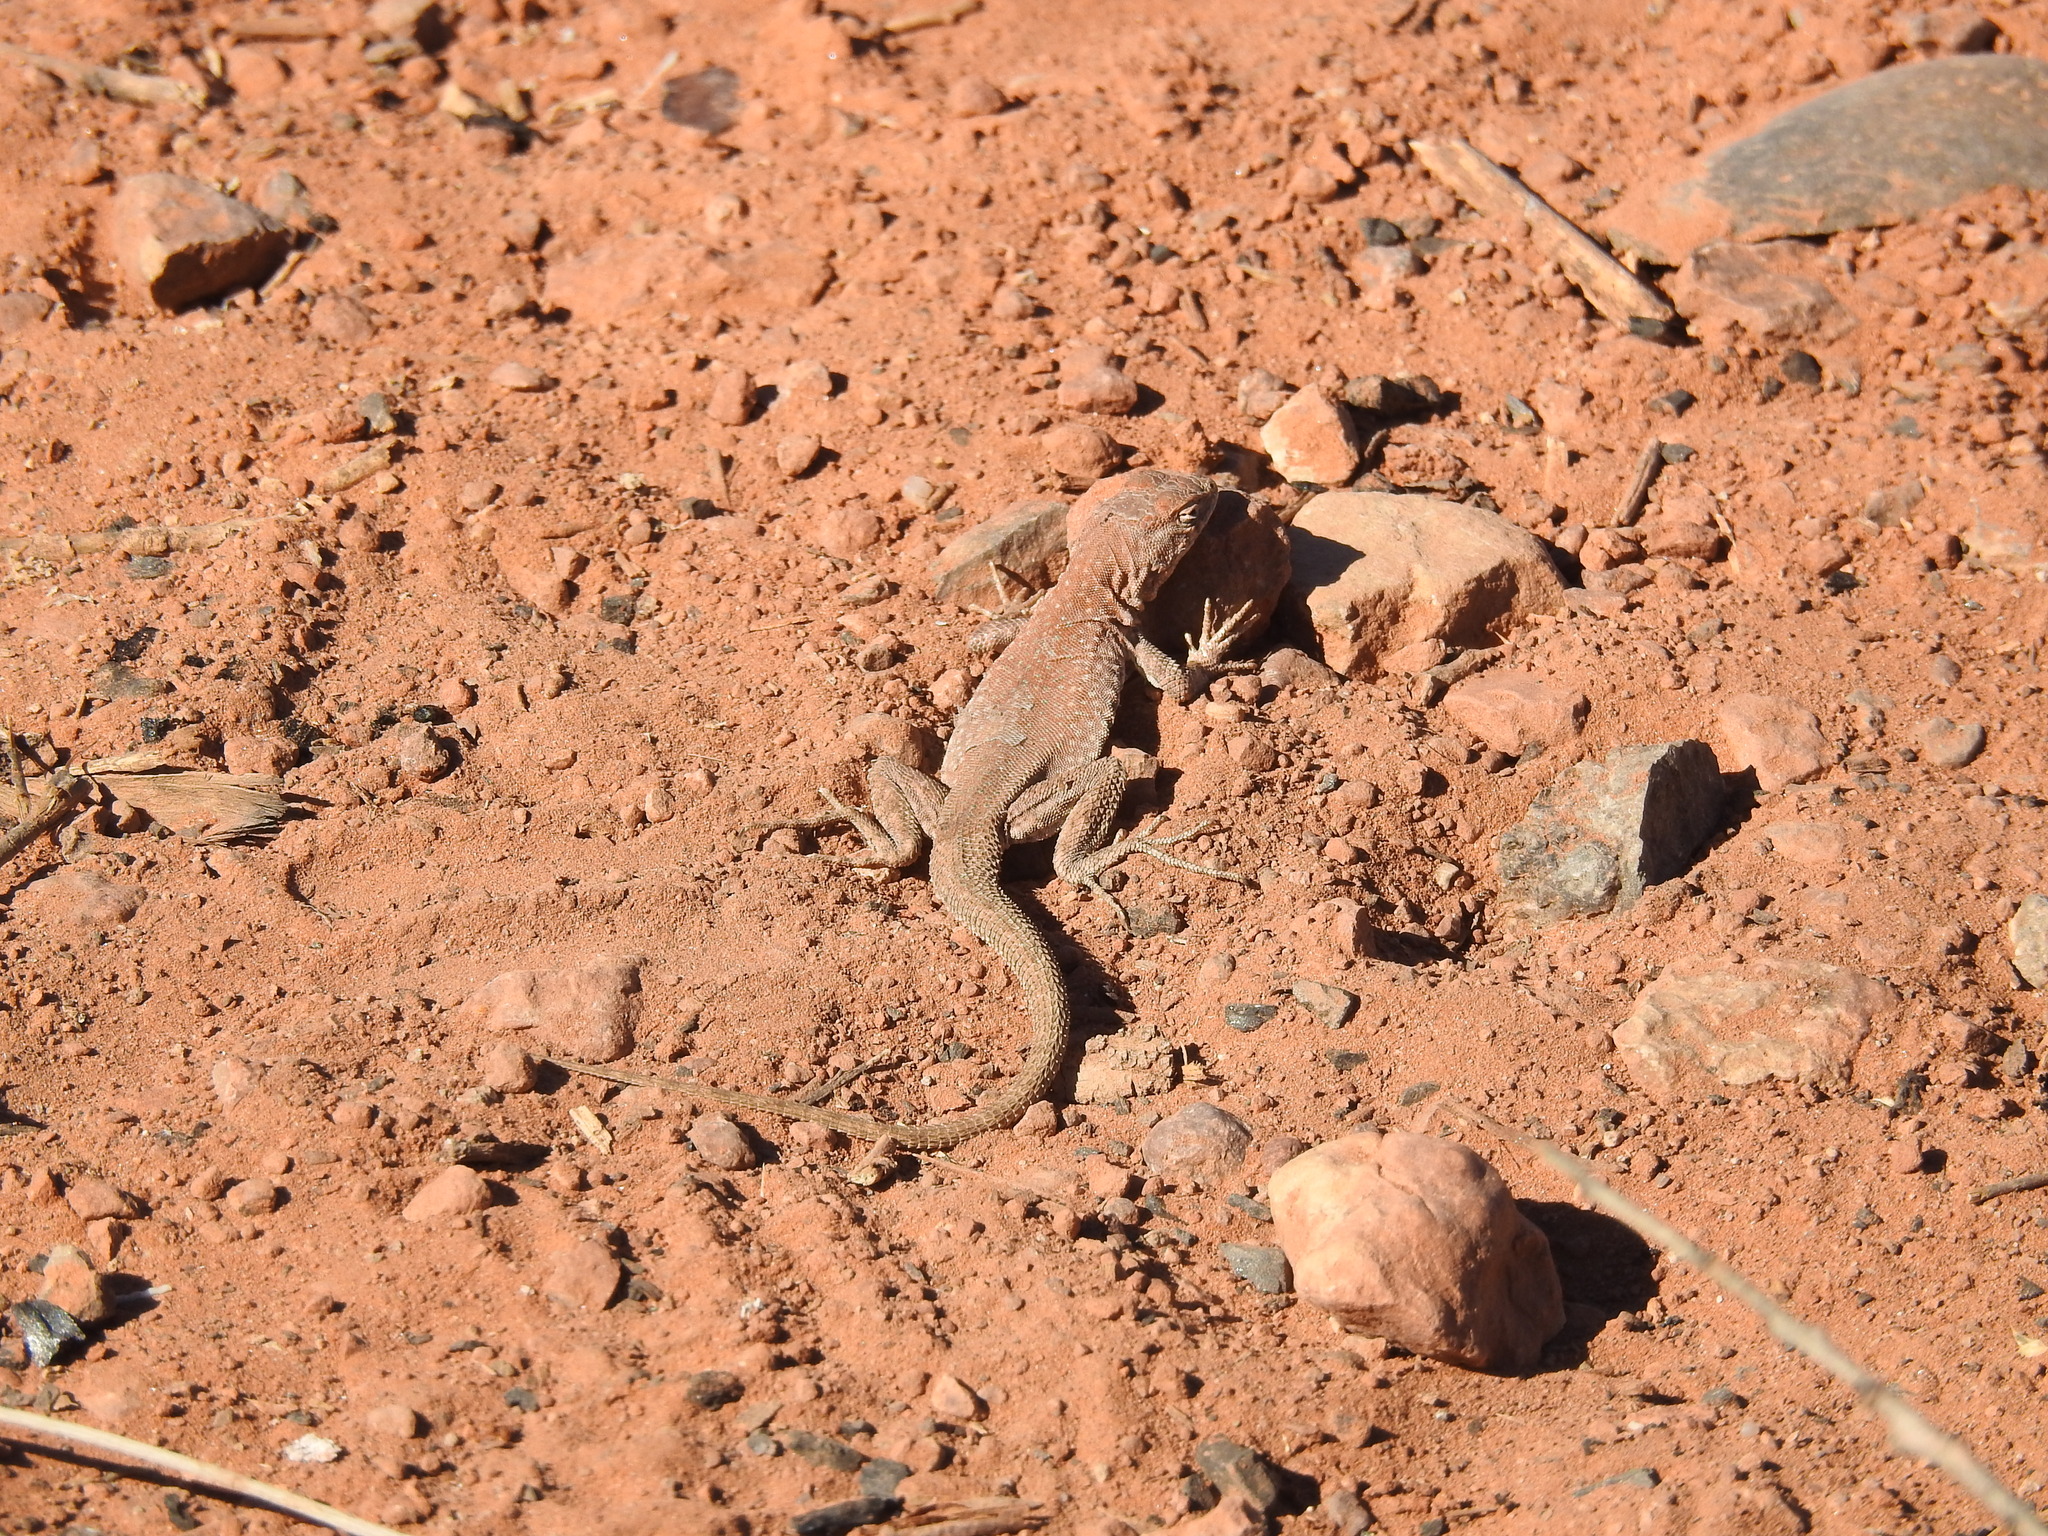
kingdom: Animalia
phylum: Chordata
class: Squamata
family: Phrynosomatidae
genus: Uta
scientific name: Uta stansburiana
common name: Side-blotched lizard
